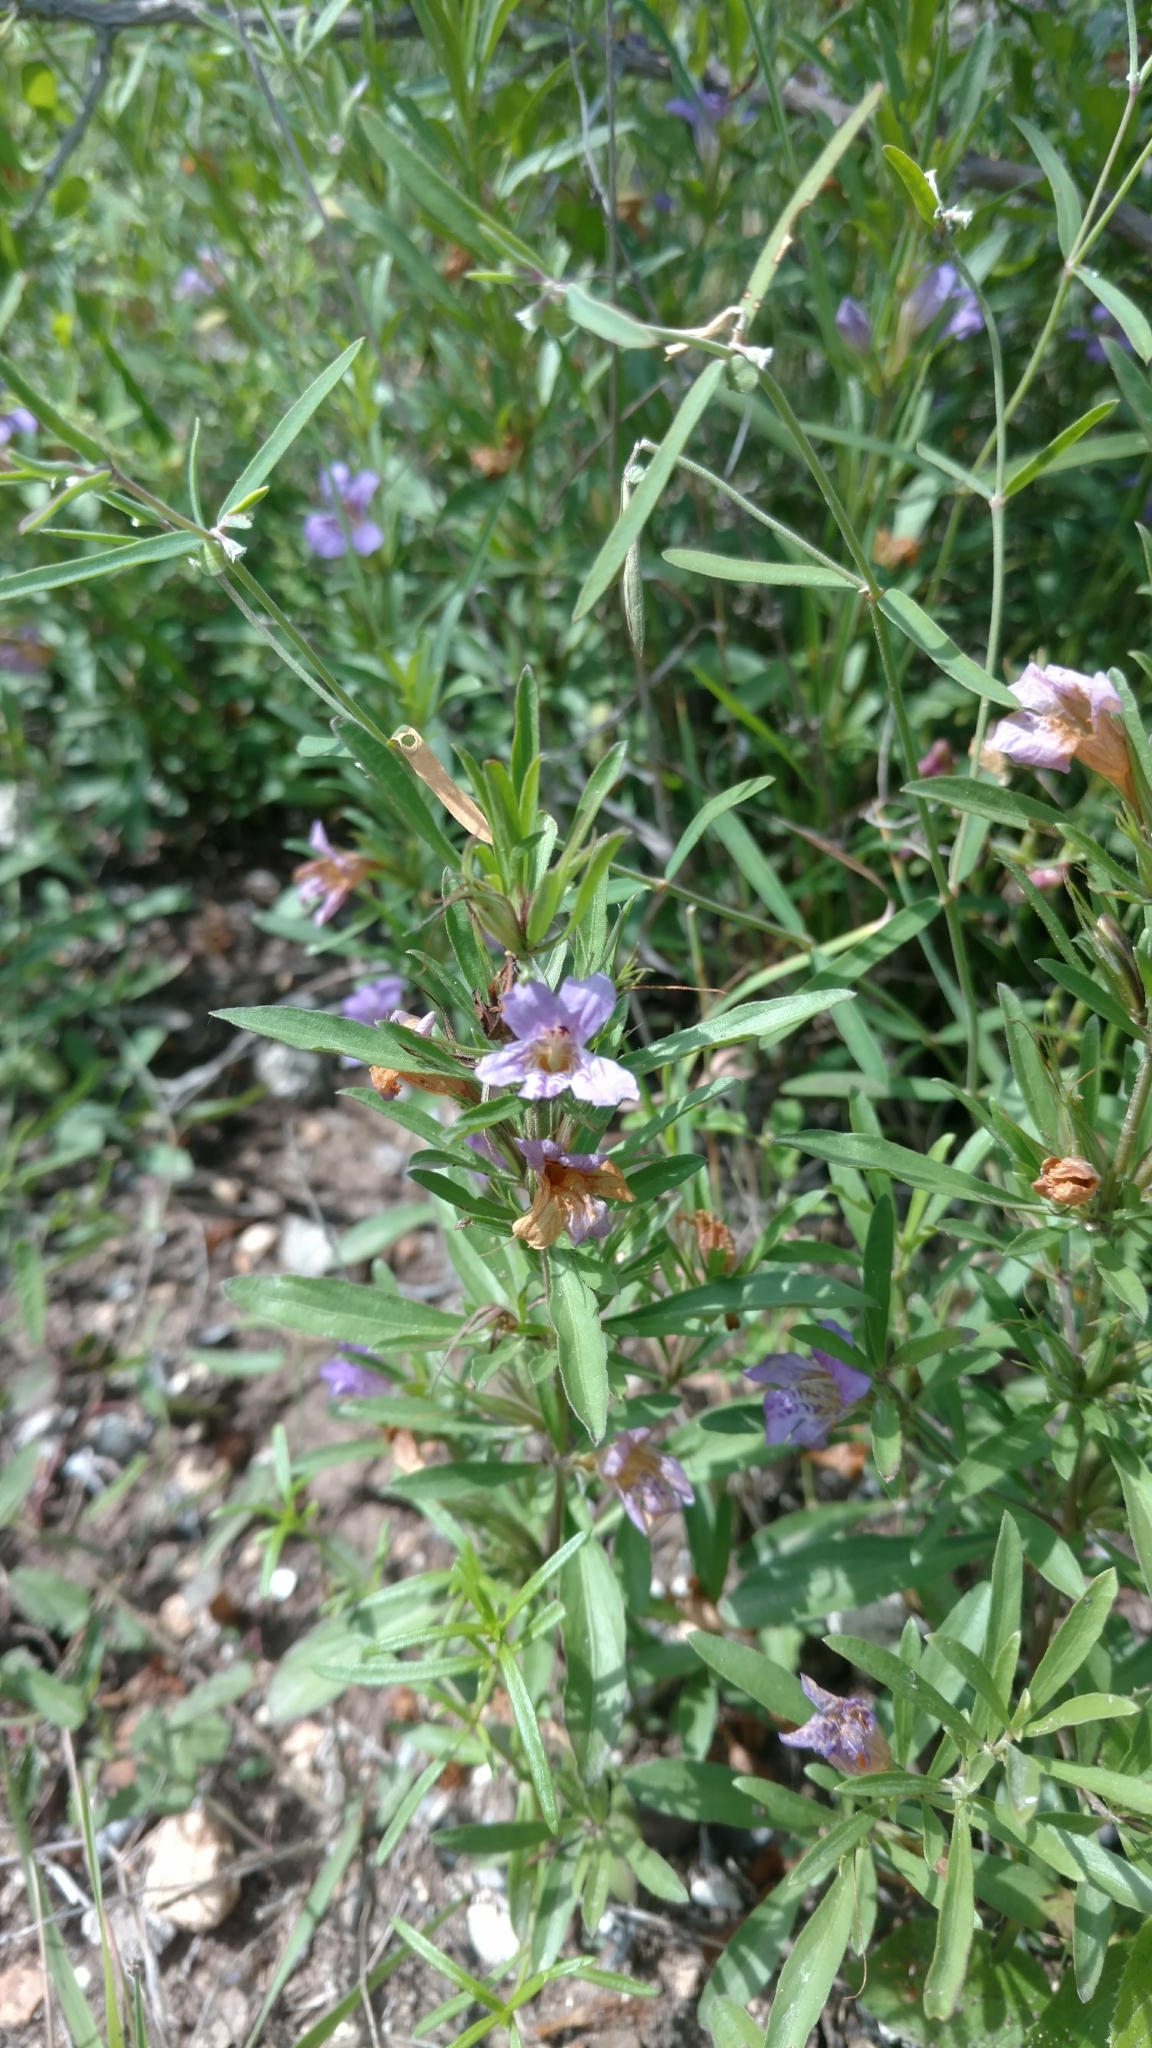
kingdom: Plantae
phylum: Tracheophyta
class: Magnoliopsida
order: Lamiales
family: Acanthaceae
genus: Dyschoriste
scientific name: Dyschoriste linearis
